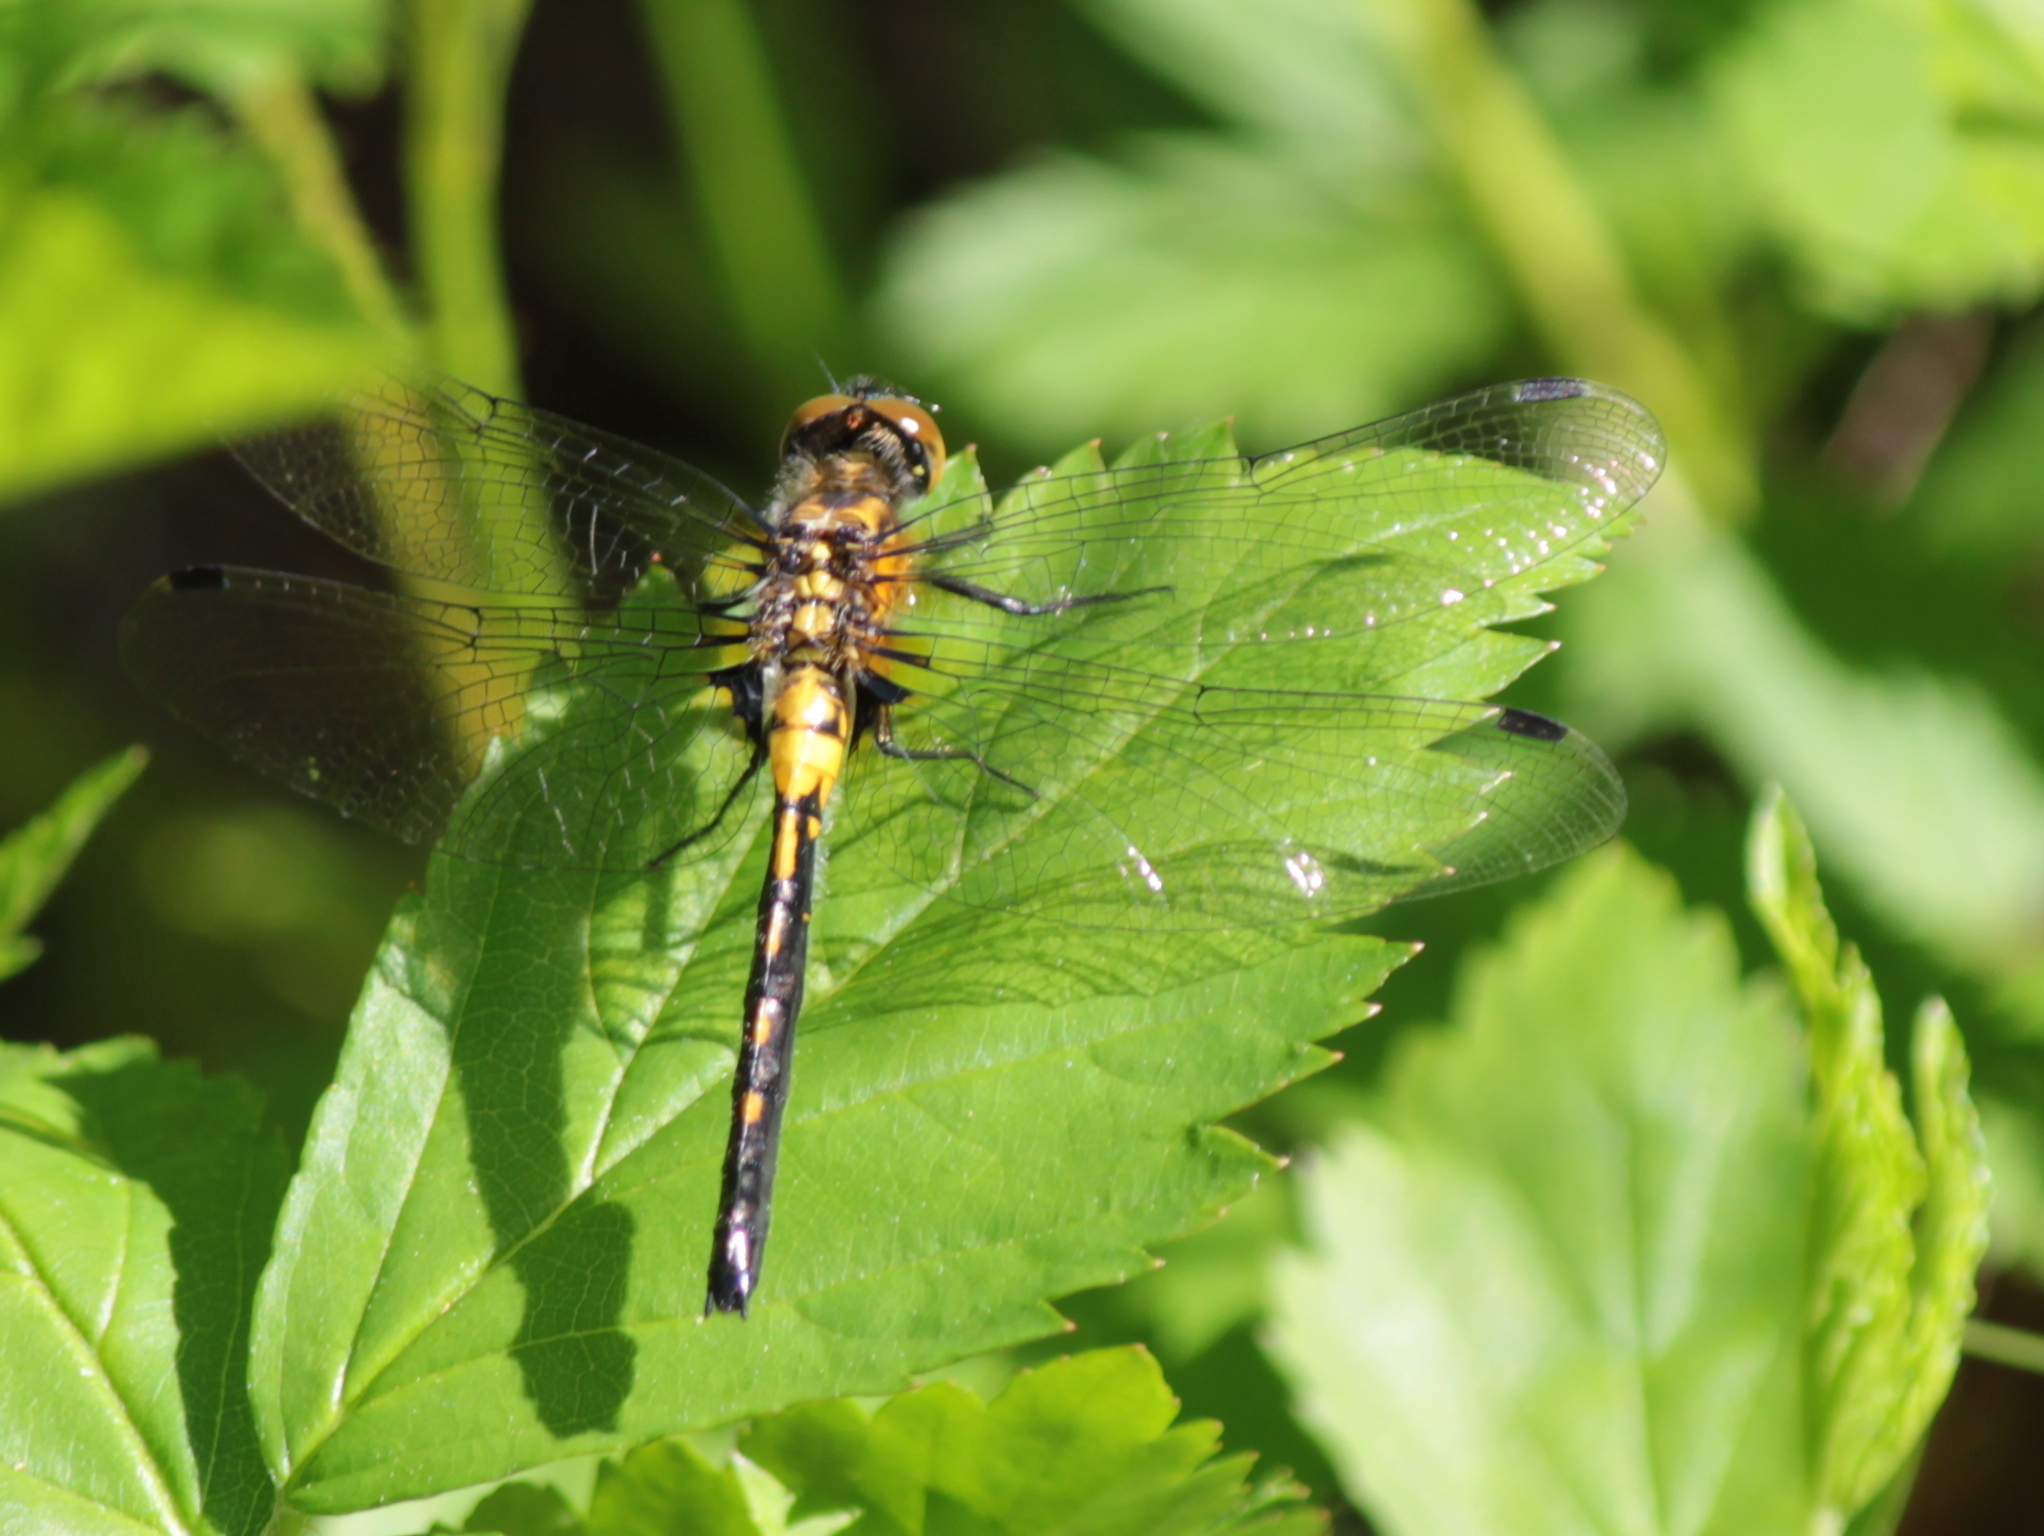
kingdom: Animalia
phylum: Arthropoda
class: Insecta
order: Odonata
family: Libellulidae
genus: Leucorrhinia
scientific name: Leucorrhinia proxima
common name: Belted whiteface
